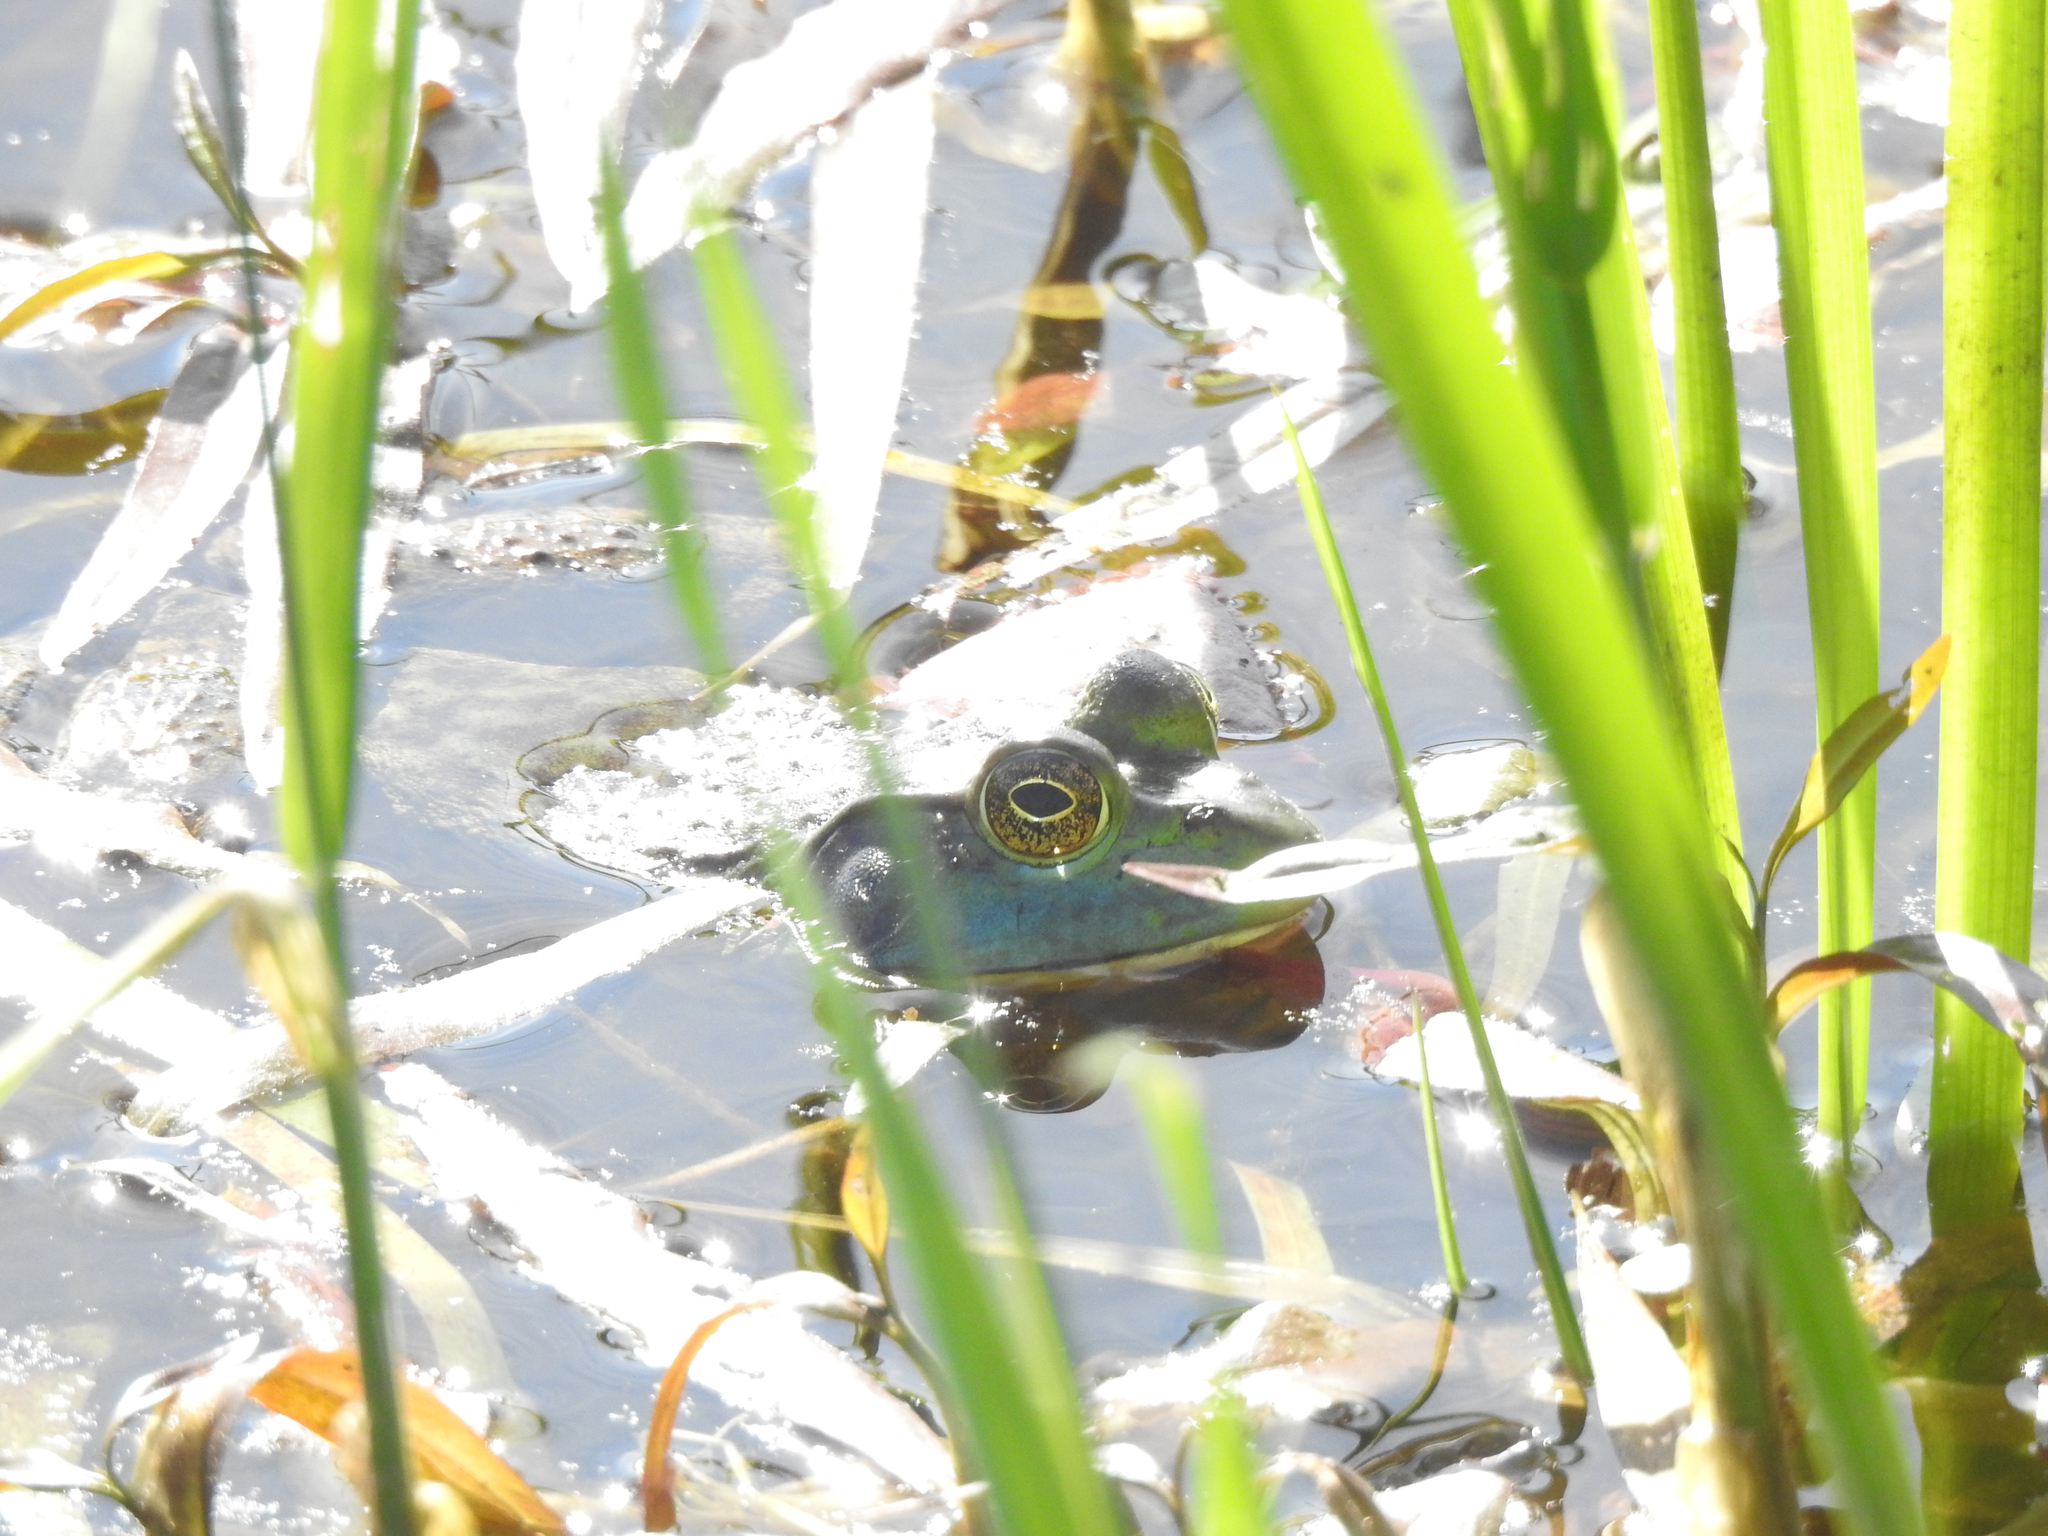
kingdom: Animalia
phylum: Chordata
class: Amphibia
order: Anura
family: Ranidae
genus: Lithobates
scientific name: Lithobates catesbeianus
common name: American bullfrog
